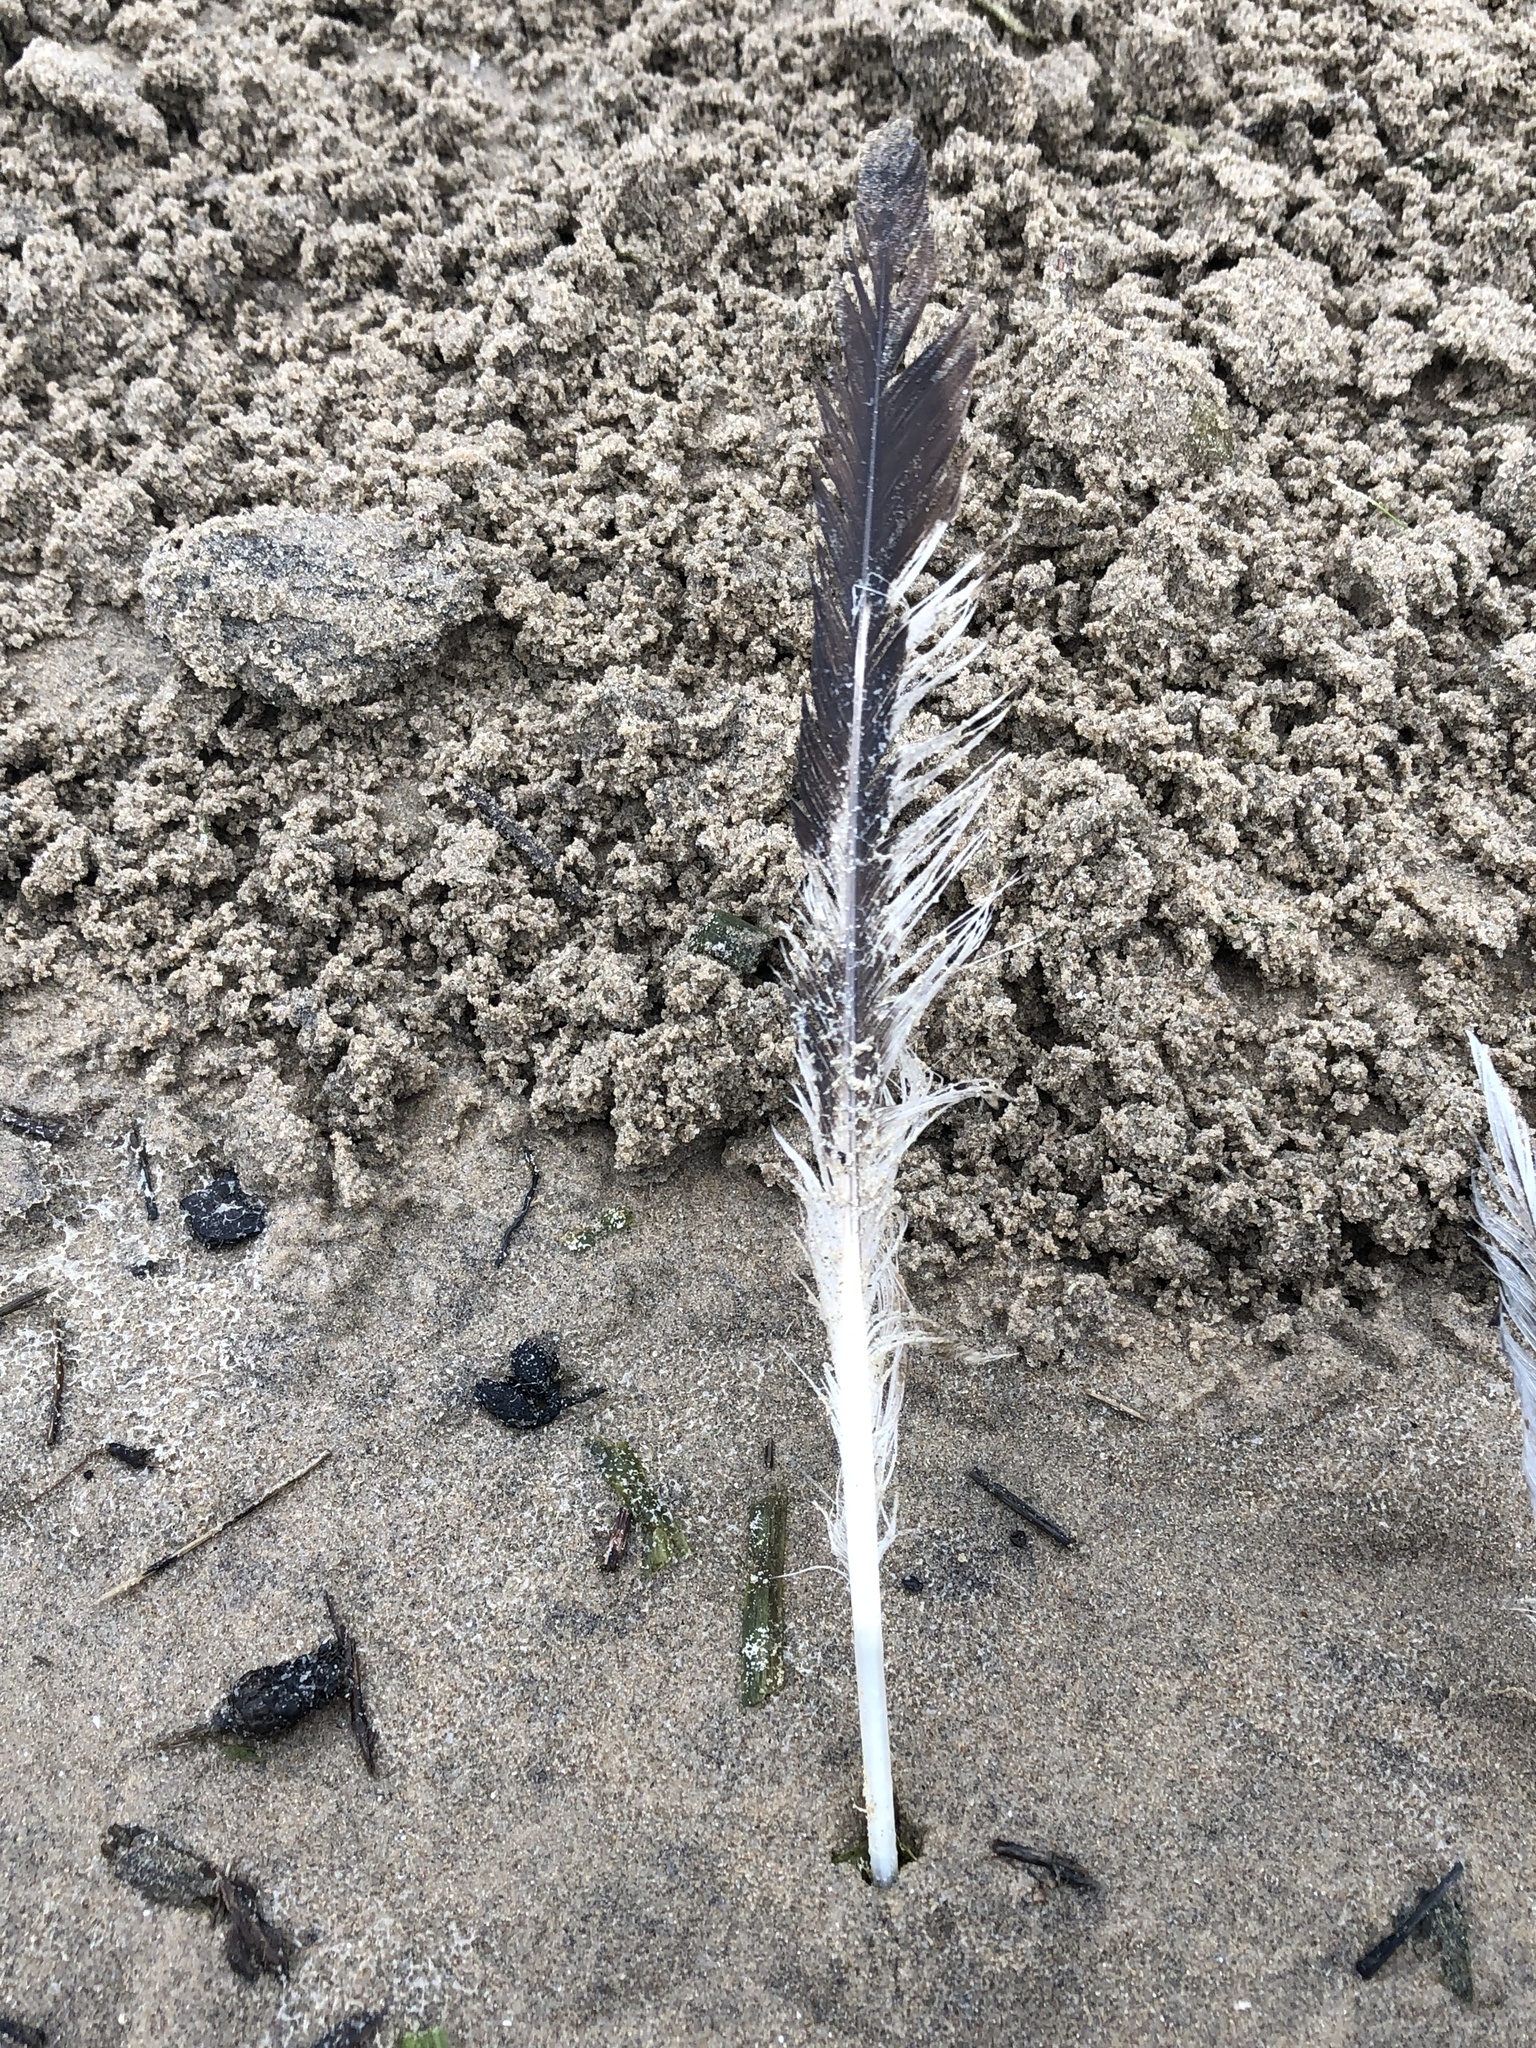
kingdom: Animalia
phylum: Chordata
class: Aves
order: Charadriiformes
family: Laridae
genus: Larus
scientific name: Larus delawarensis
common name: Ring-billed gull
